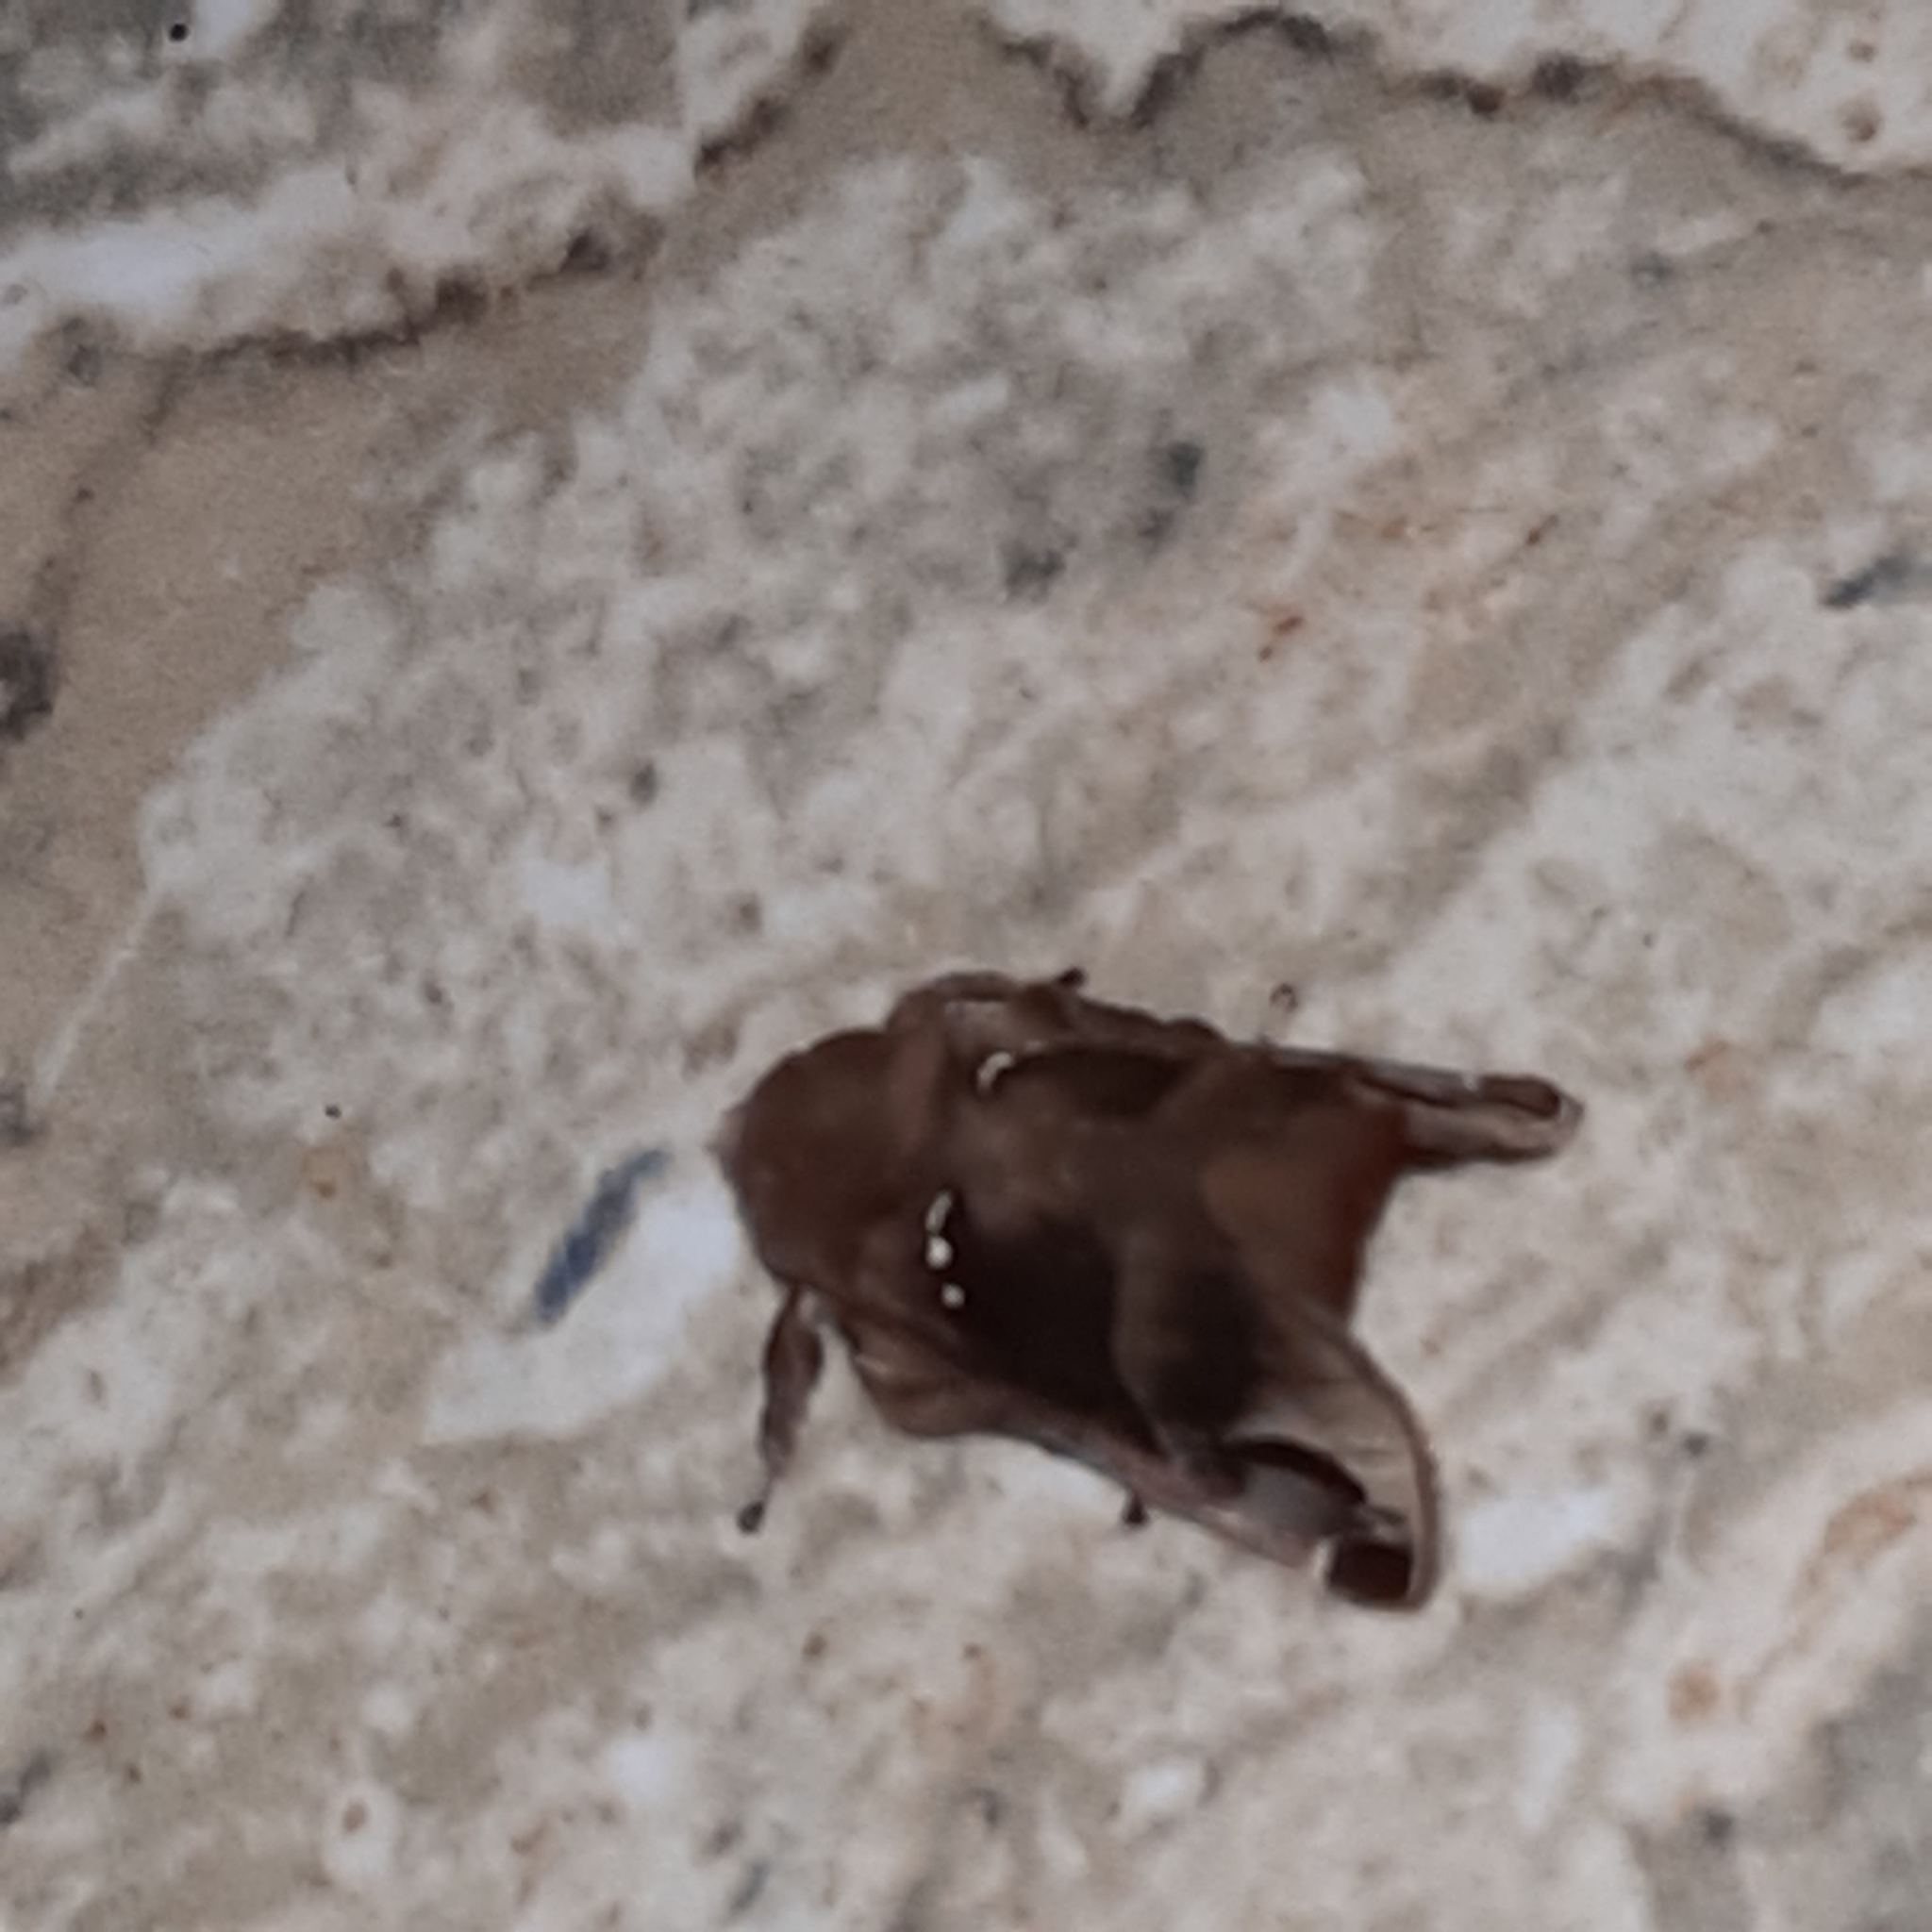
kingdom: Animalia
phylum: Arthropoda
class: Insecta
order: Lepidoptera
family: Limacodidae
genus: Semyra
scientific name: Semyra irena
